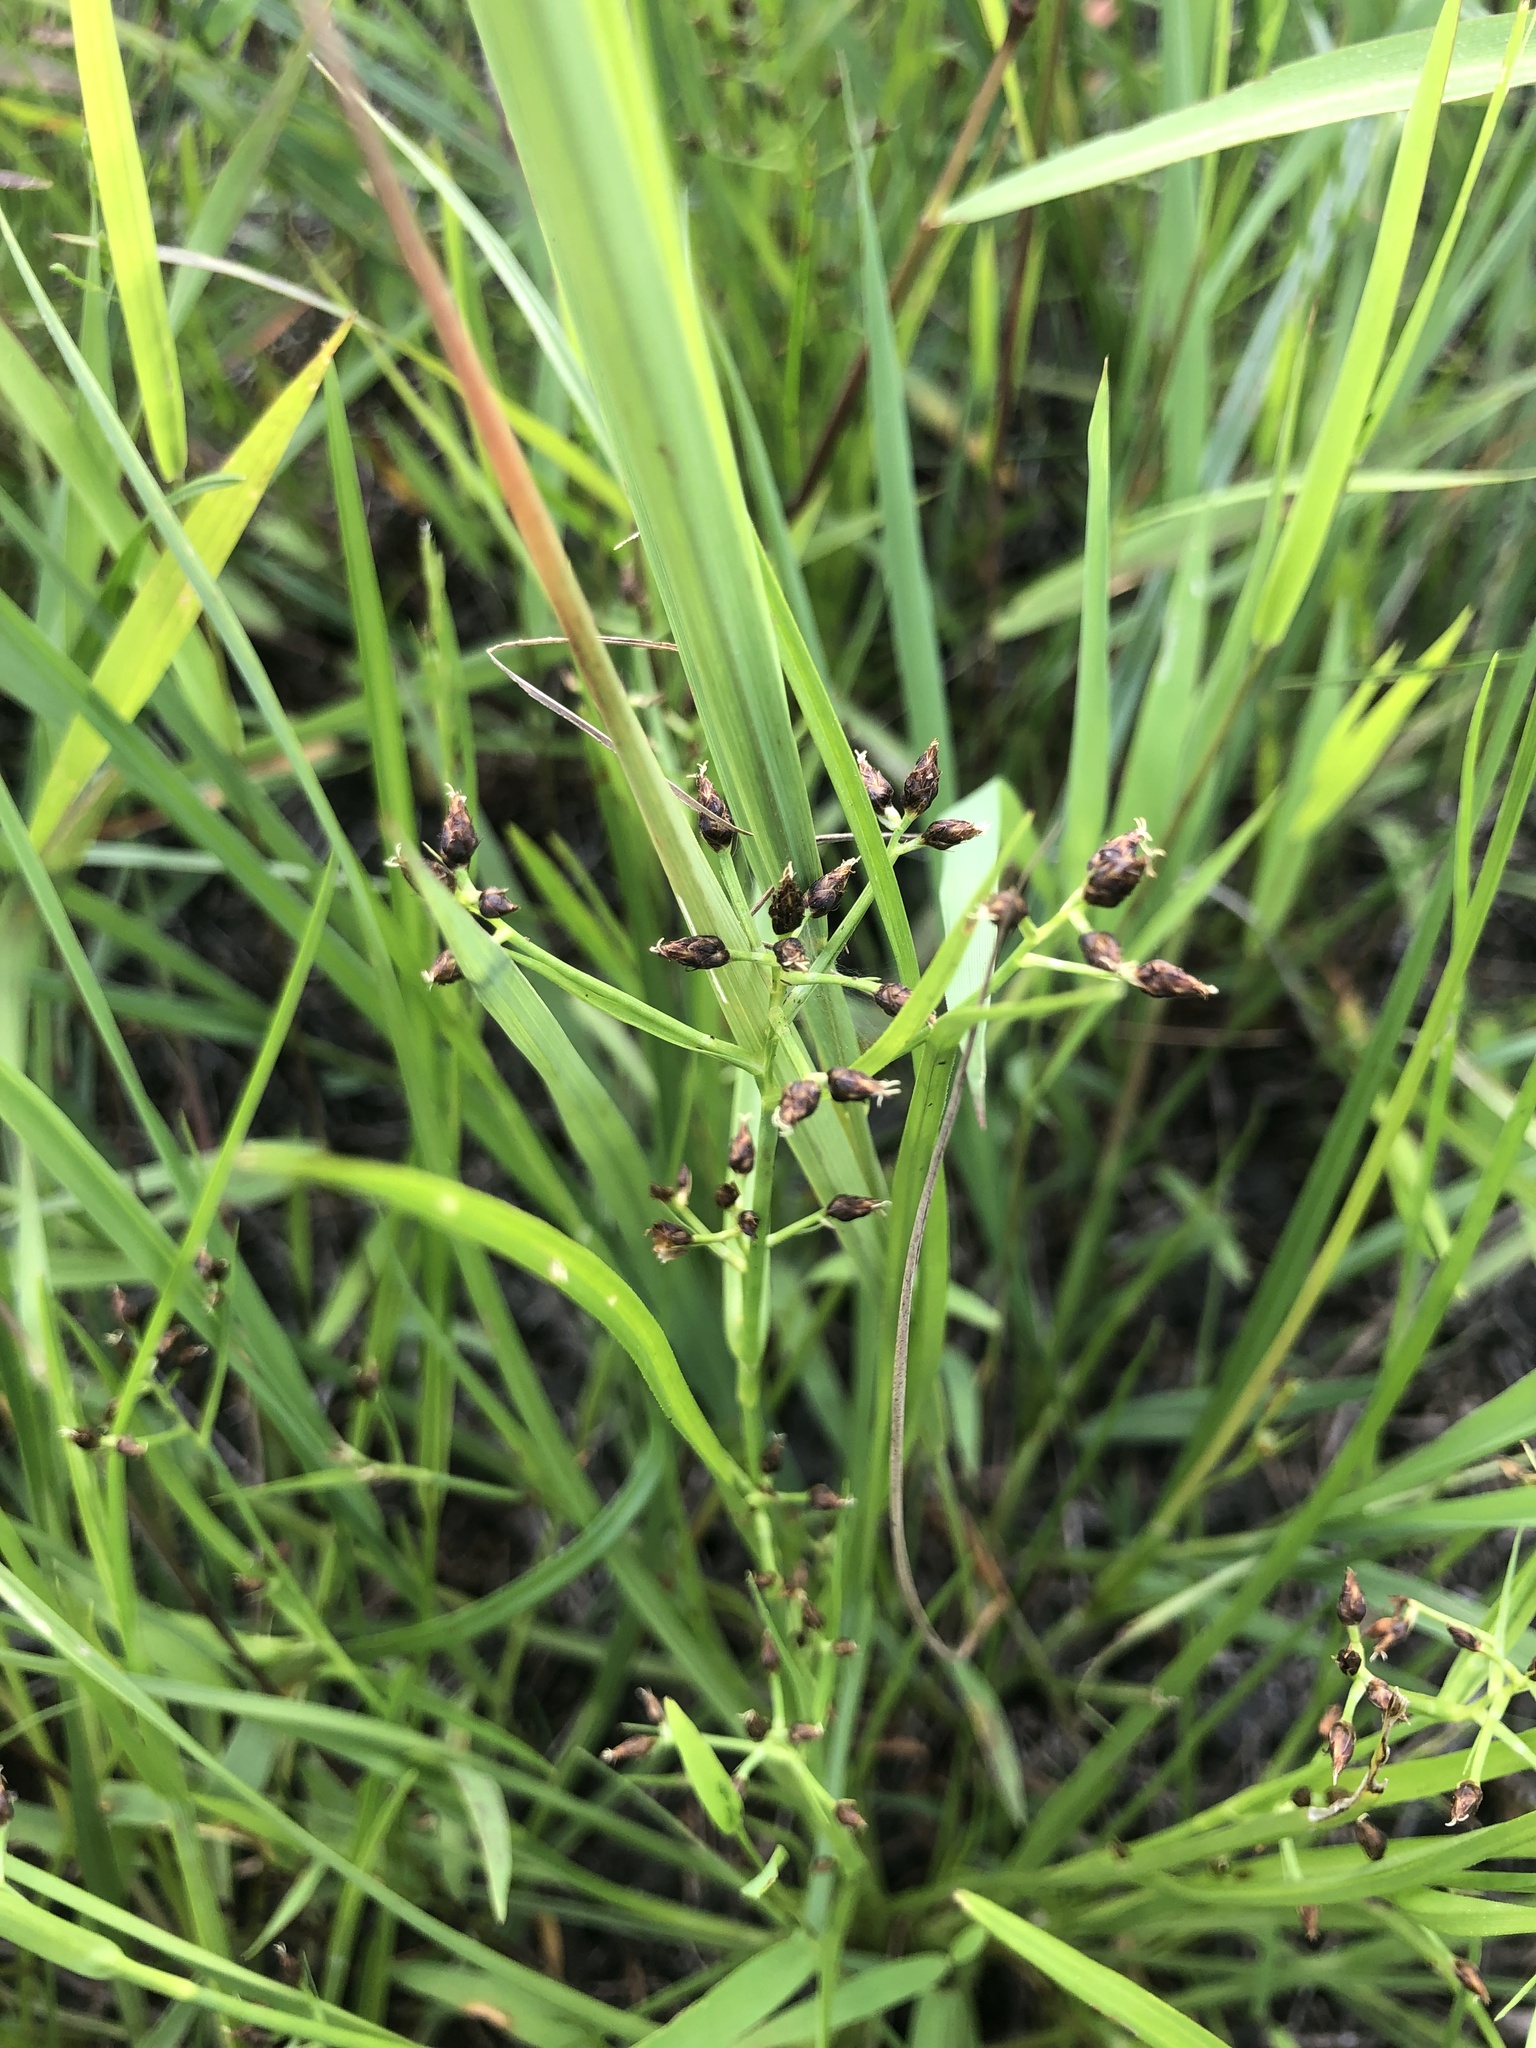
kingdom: Plantae
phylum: Tracheophyta
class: Liliopsida
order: Poales
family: Cyperaceae
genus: Rhynchospora
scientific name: Rhynchospora nitens
